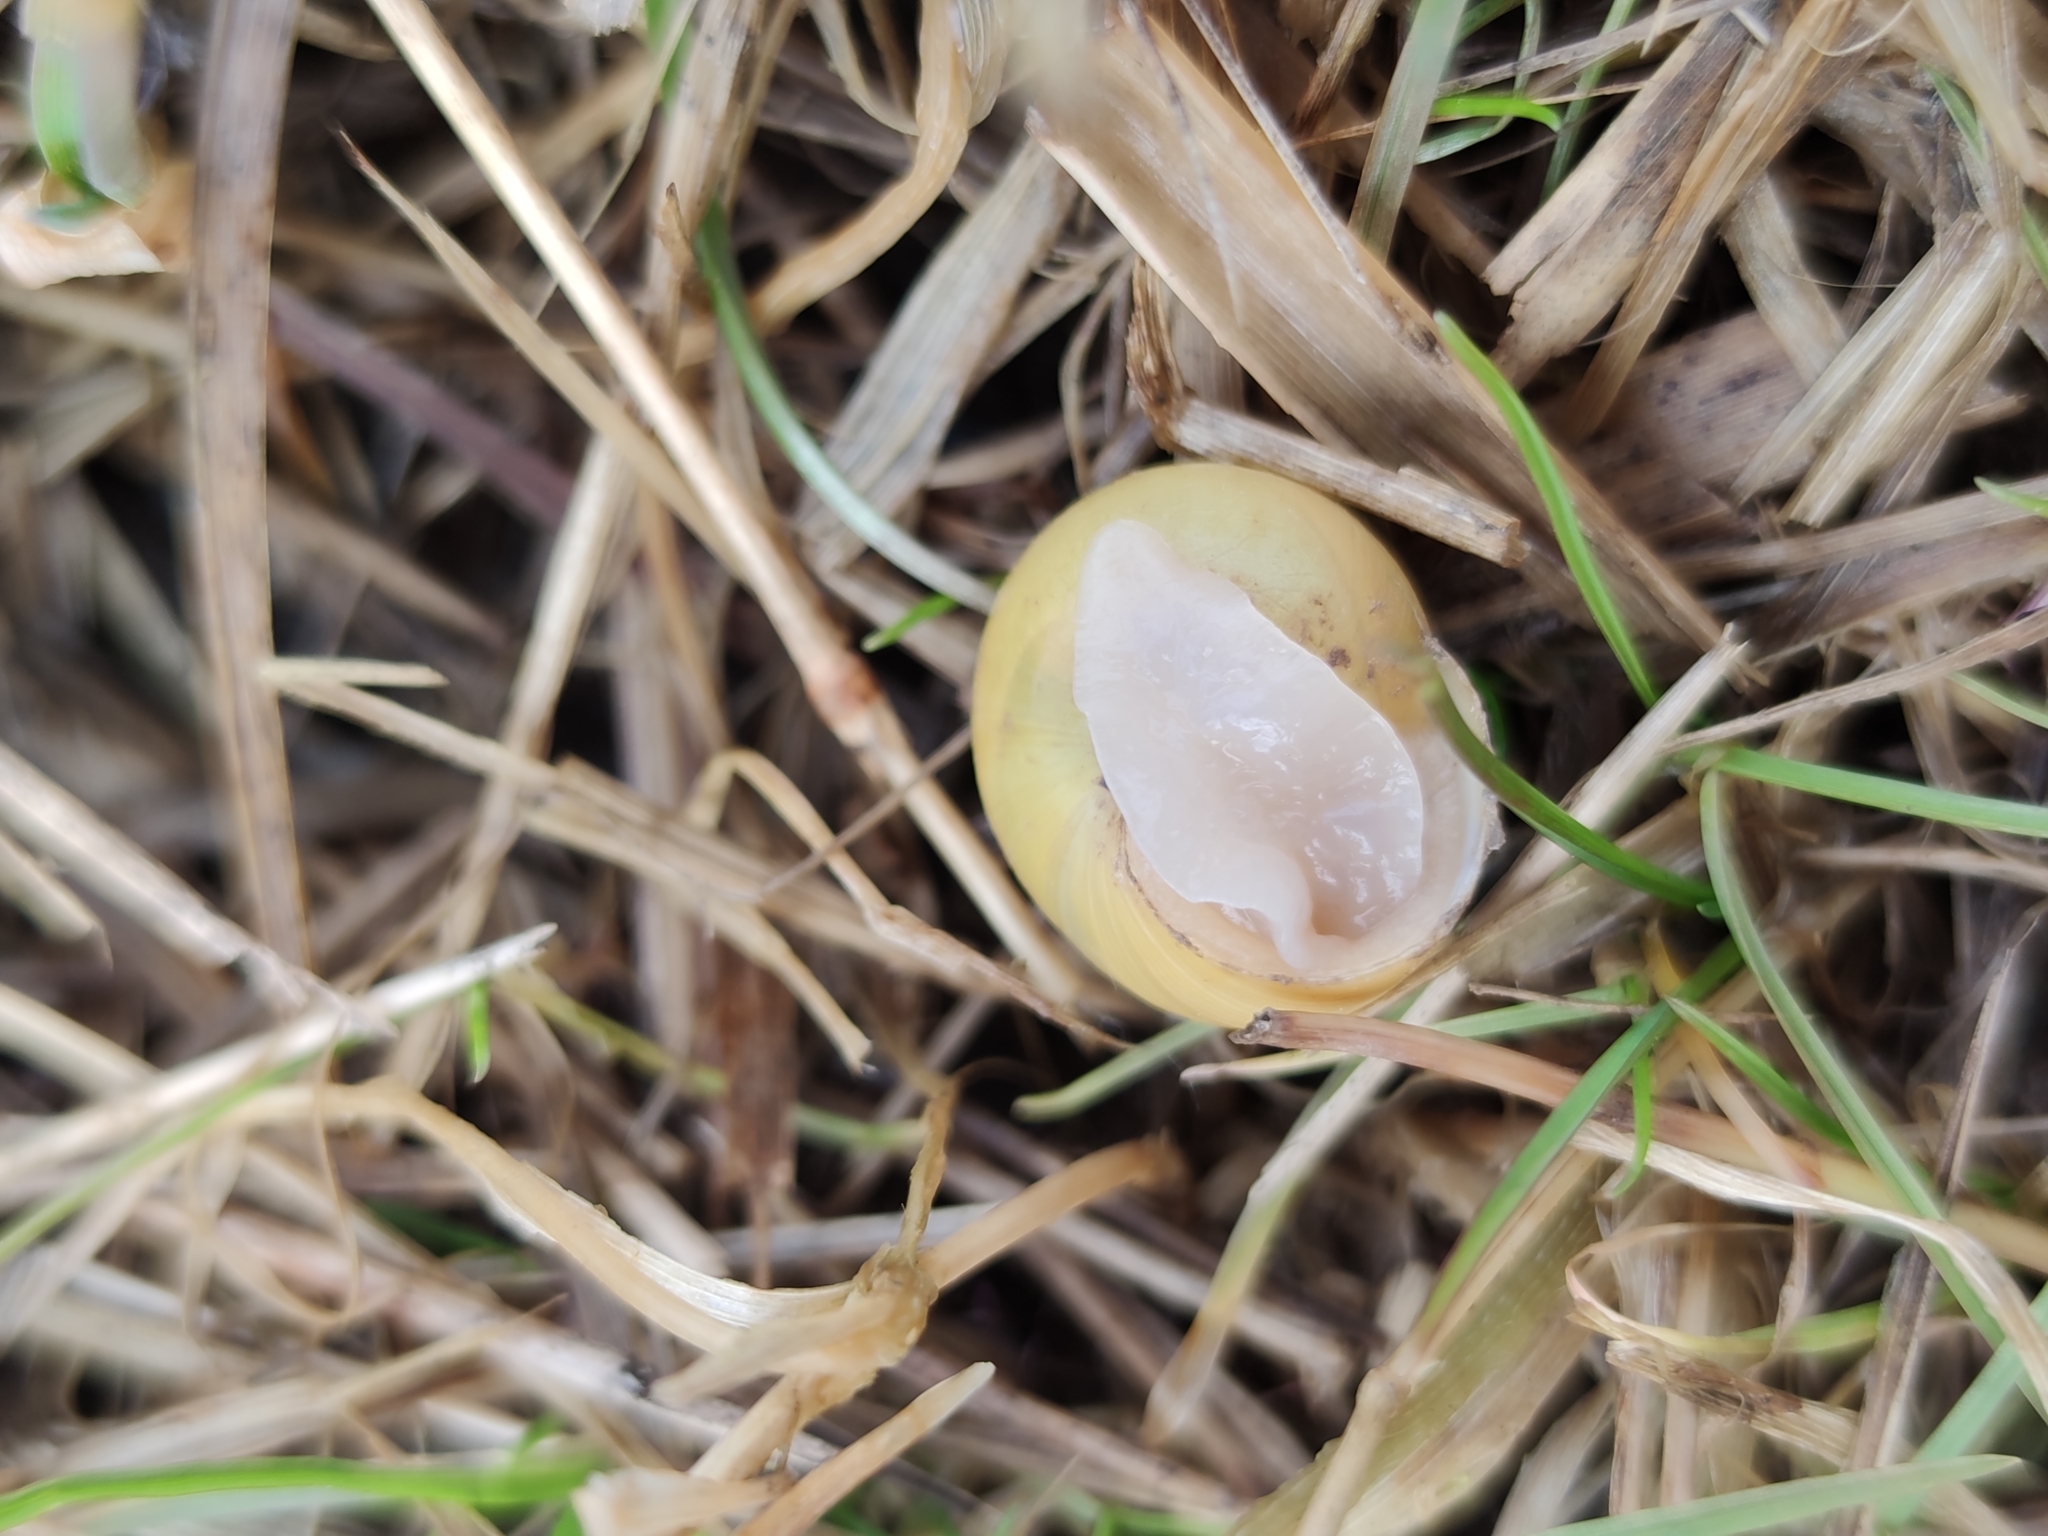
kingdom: Animalia
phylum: Mollusca
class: Gastropoda
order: Stylommatophora
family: Helicidae
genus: Cepaea
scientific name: Cepaea
